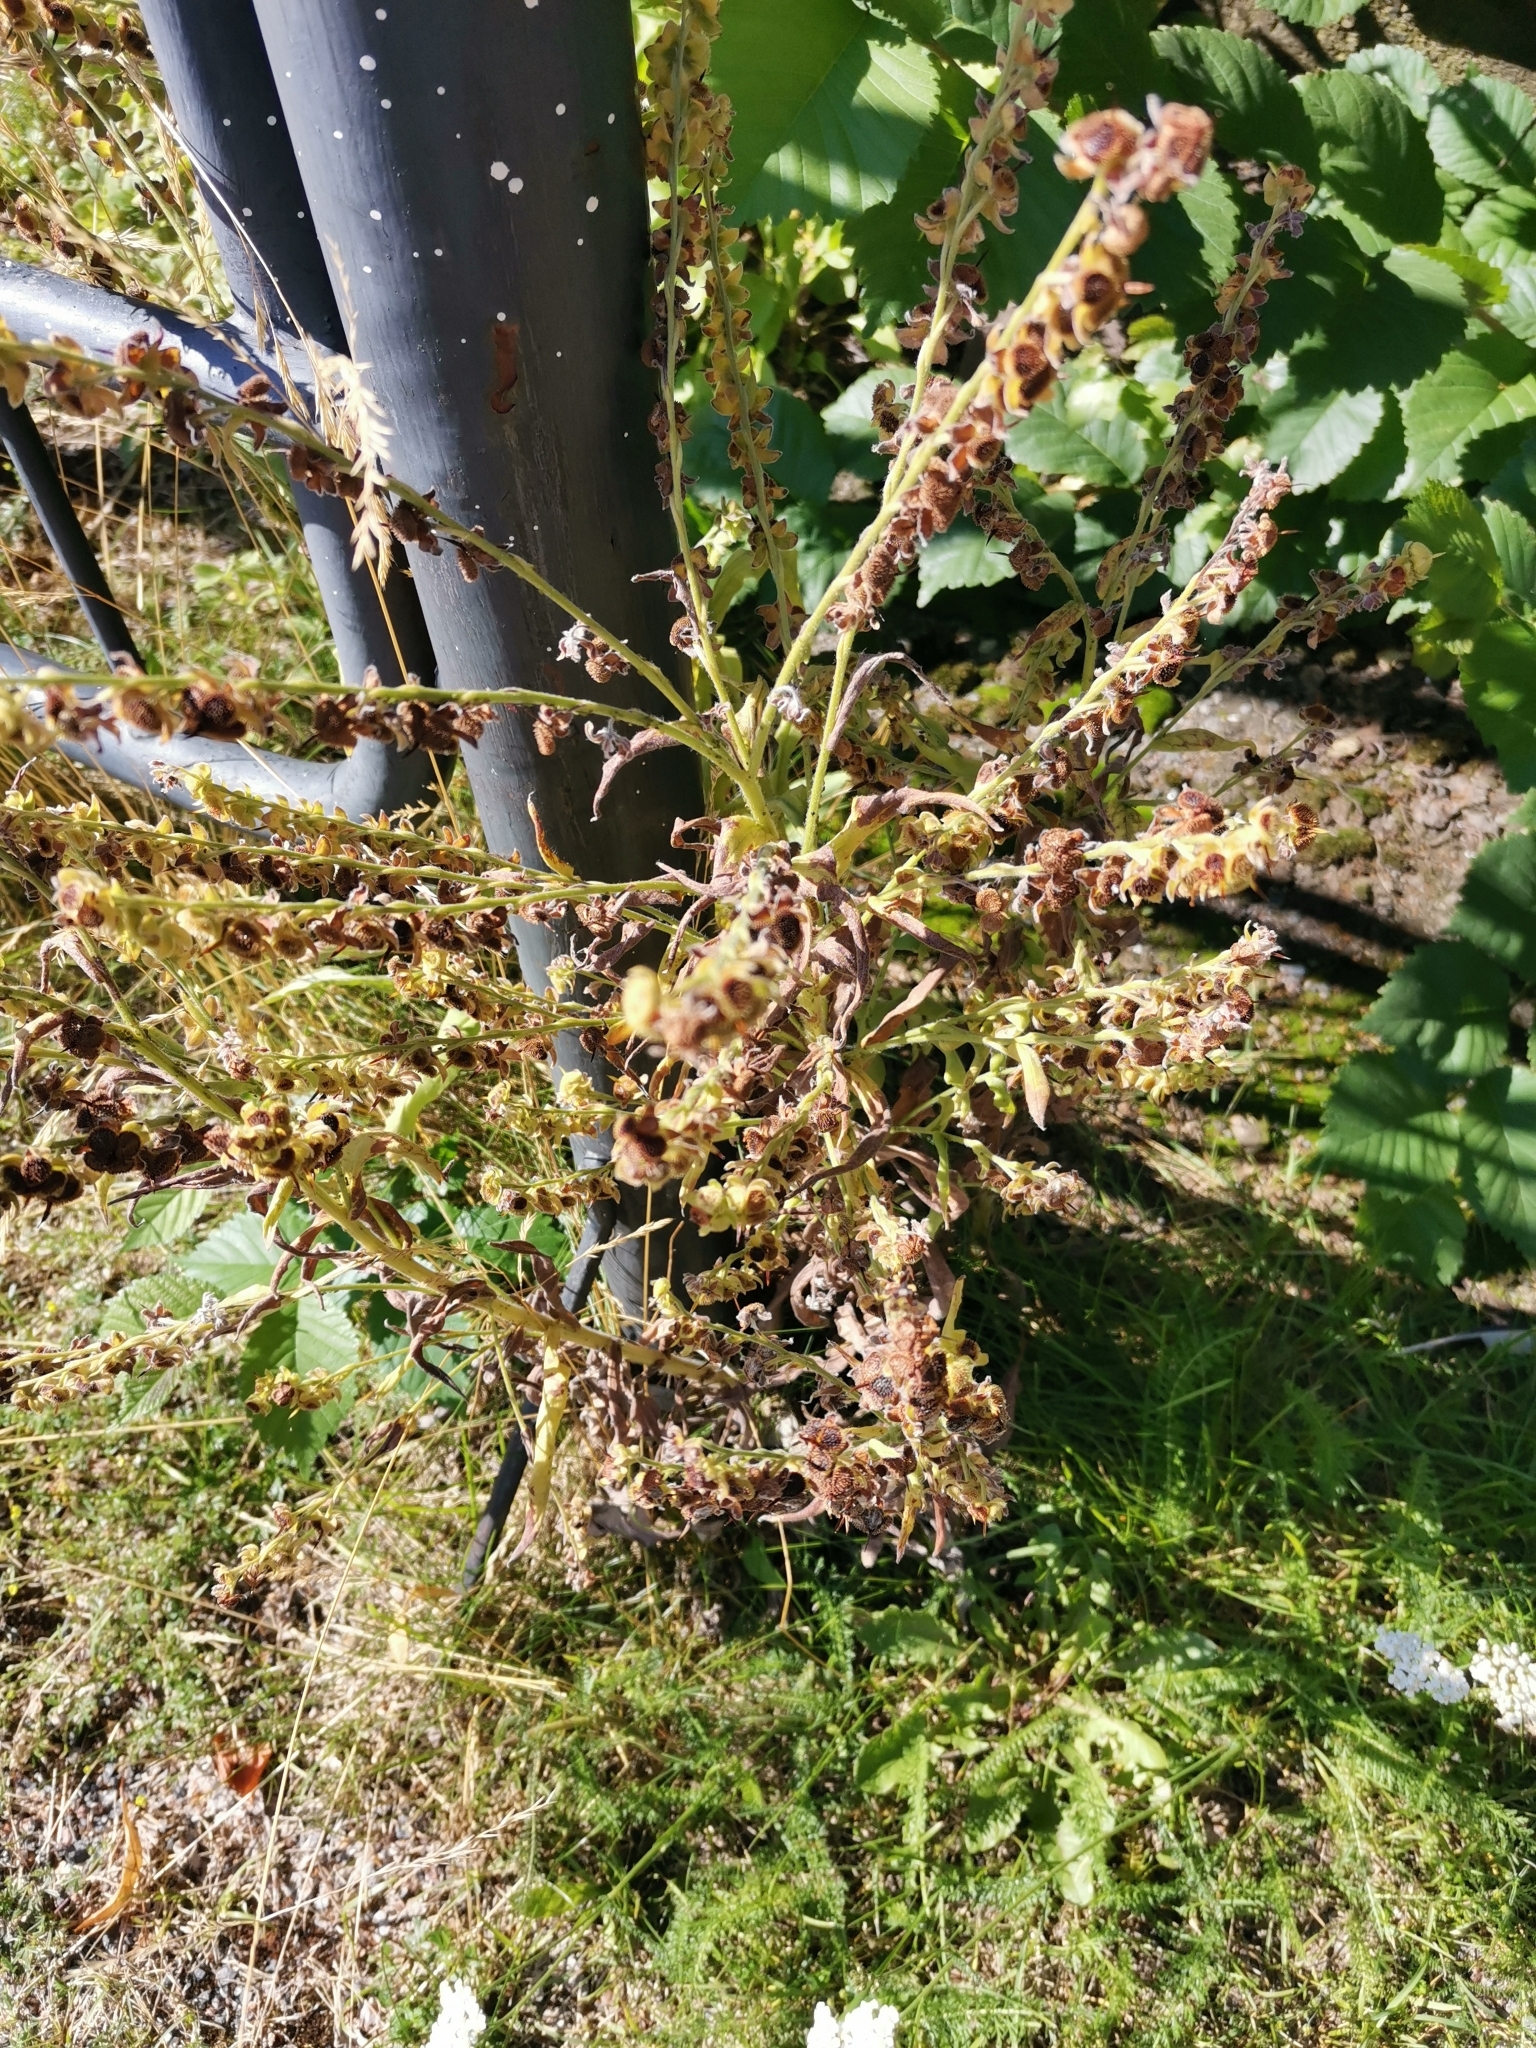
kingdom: Plantae
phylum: Tracheophyta
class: Magnoliopsida
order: Boraginales
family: Boraginaceae
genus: Cynoglossum
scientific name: Cynoglossum officinale
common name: Hound's-tongue
